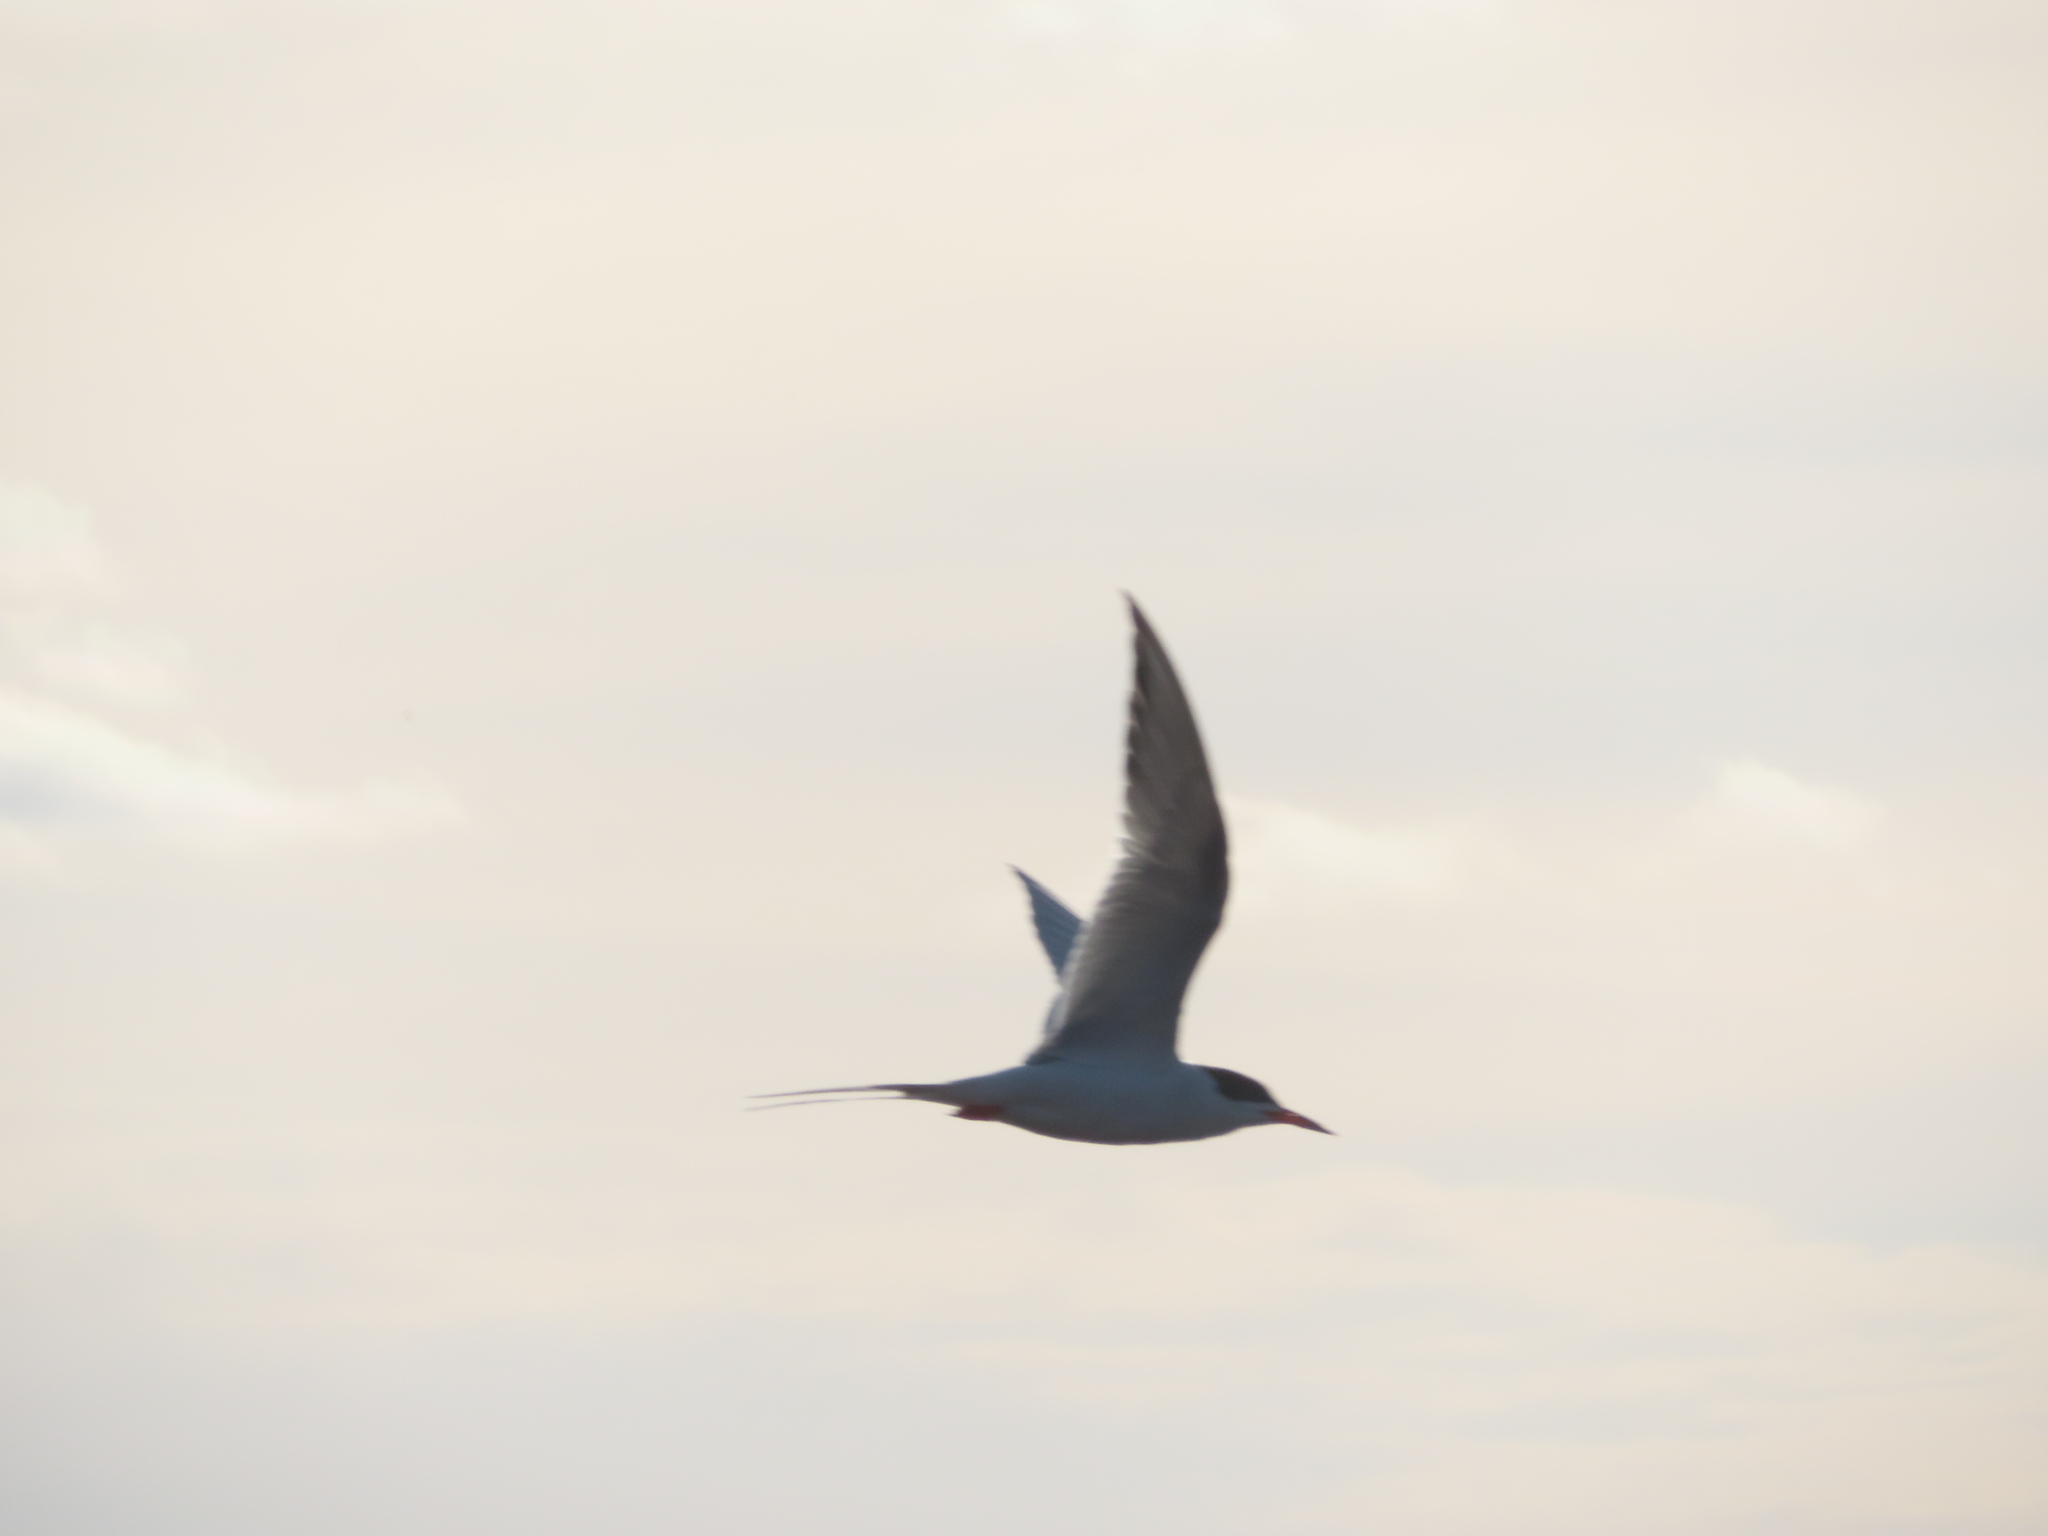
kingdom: Animalia
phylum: Chordata
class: Aves
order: Charadriiformes
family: Laridae
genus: Sterna
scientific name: Sterna forsteri
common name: Forster's tern
